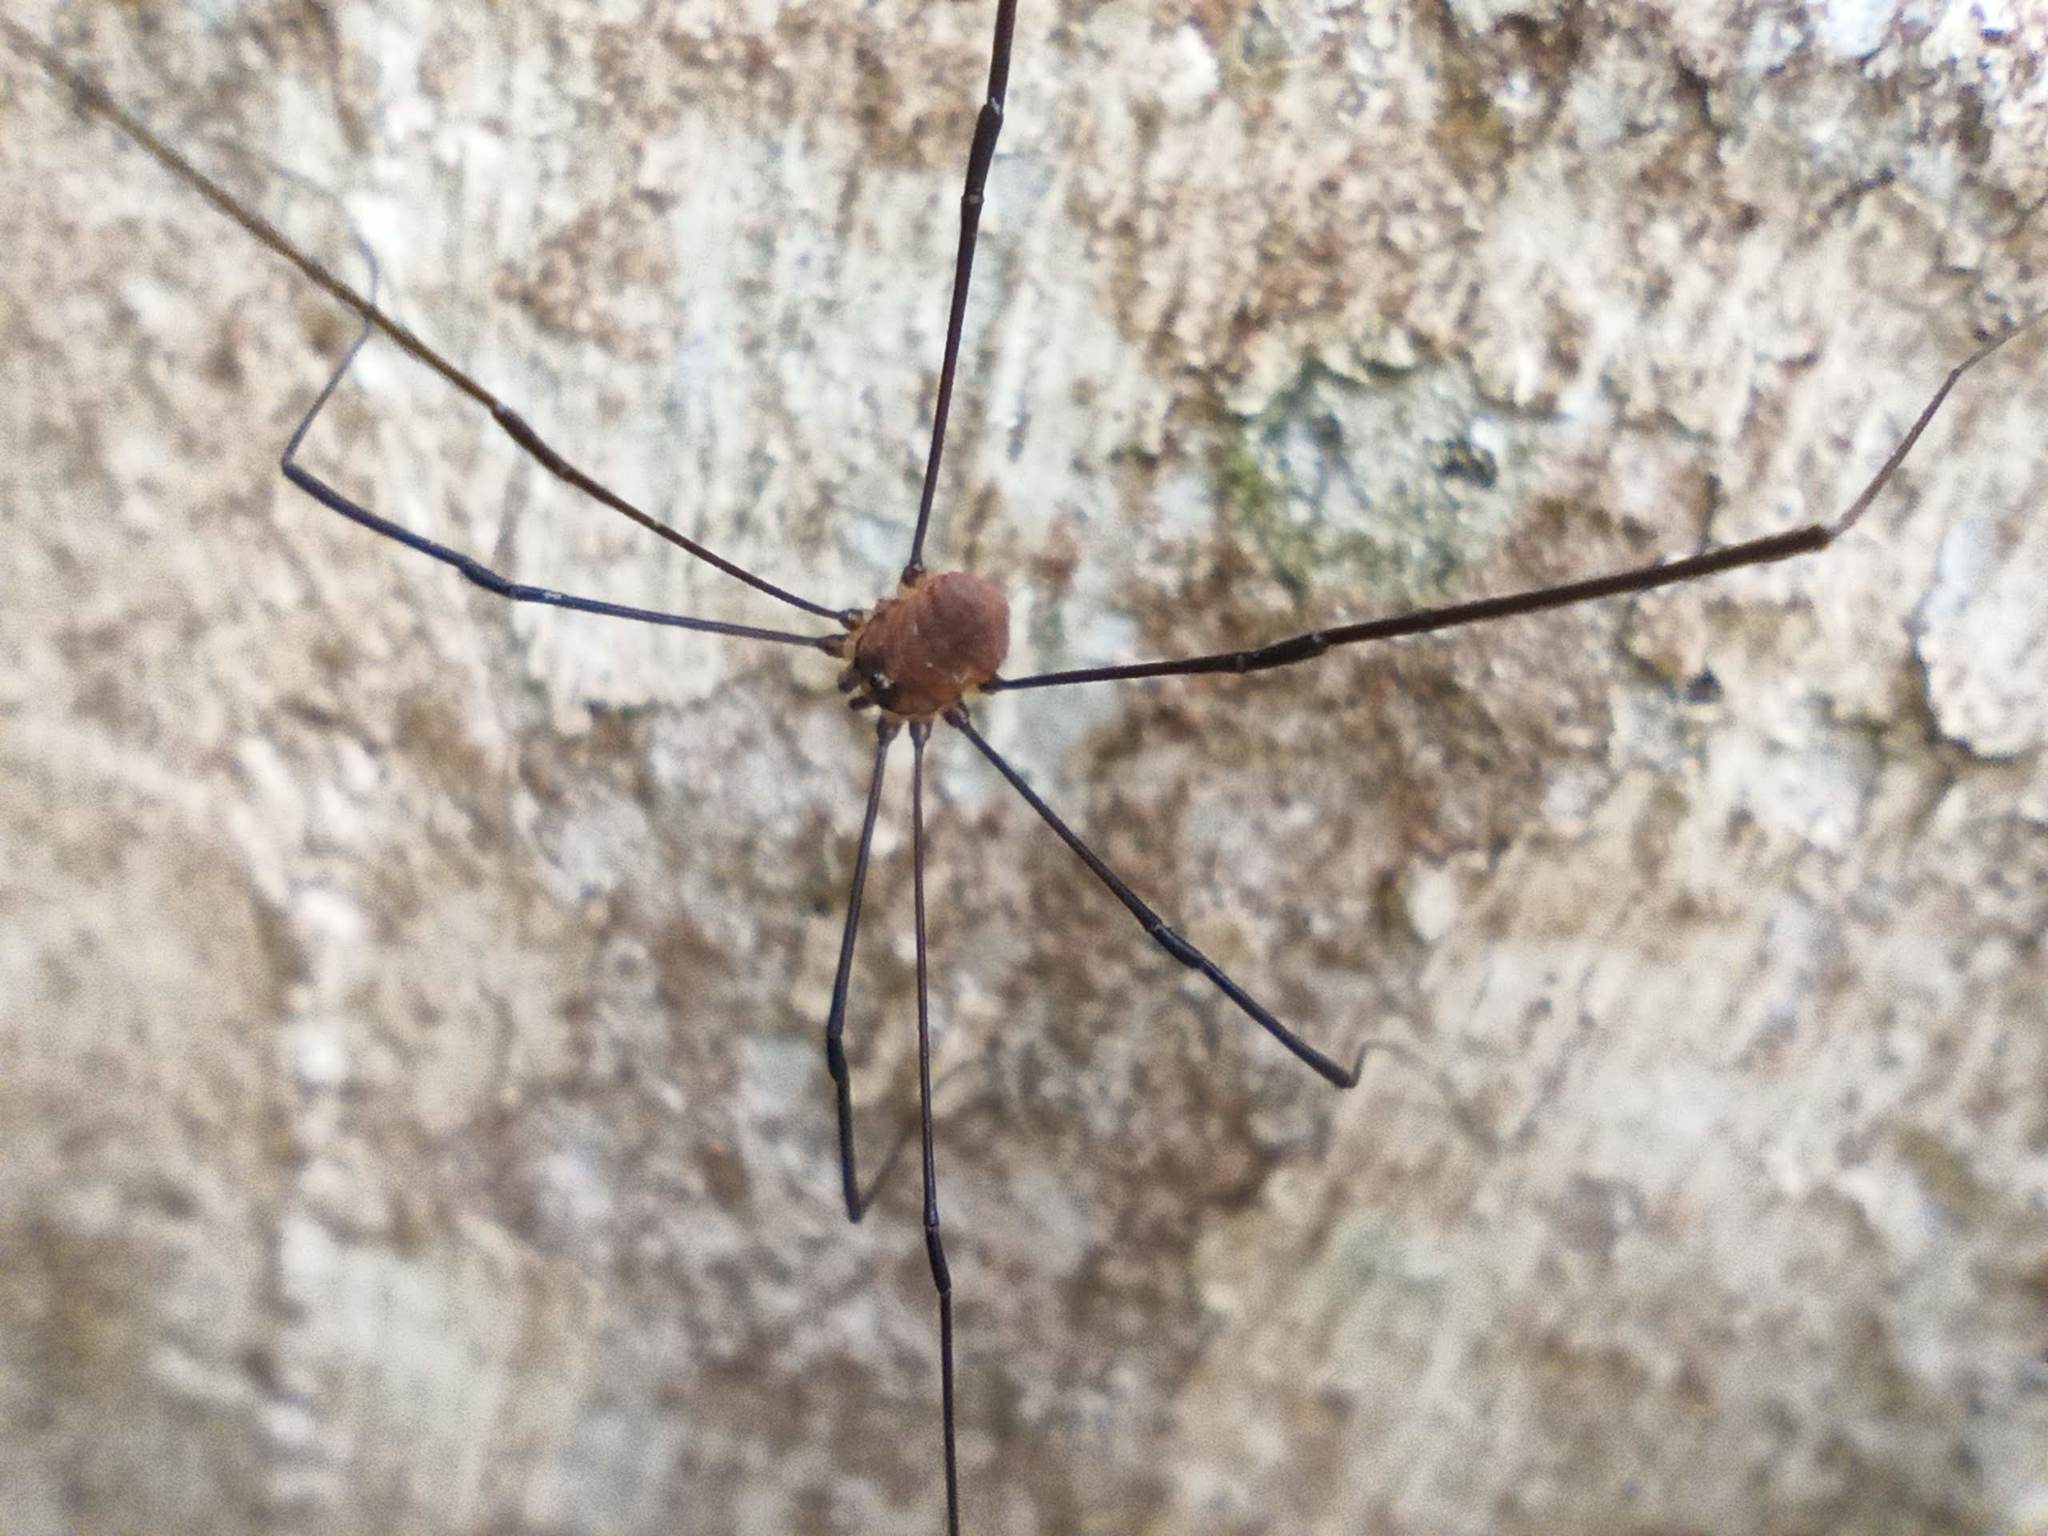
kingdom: Animalia
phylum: Arthropoda
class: Arachnida
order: Opiliones
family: Sclerosomatidae
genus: Leiobunum
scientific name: Leiobunum blackwalli
